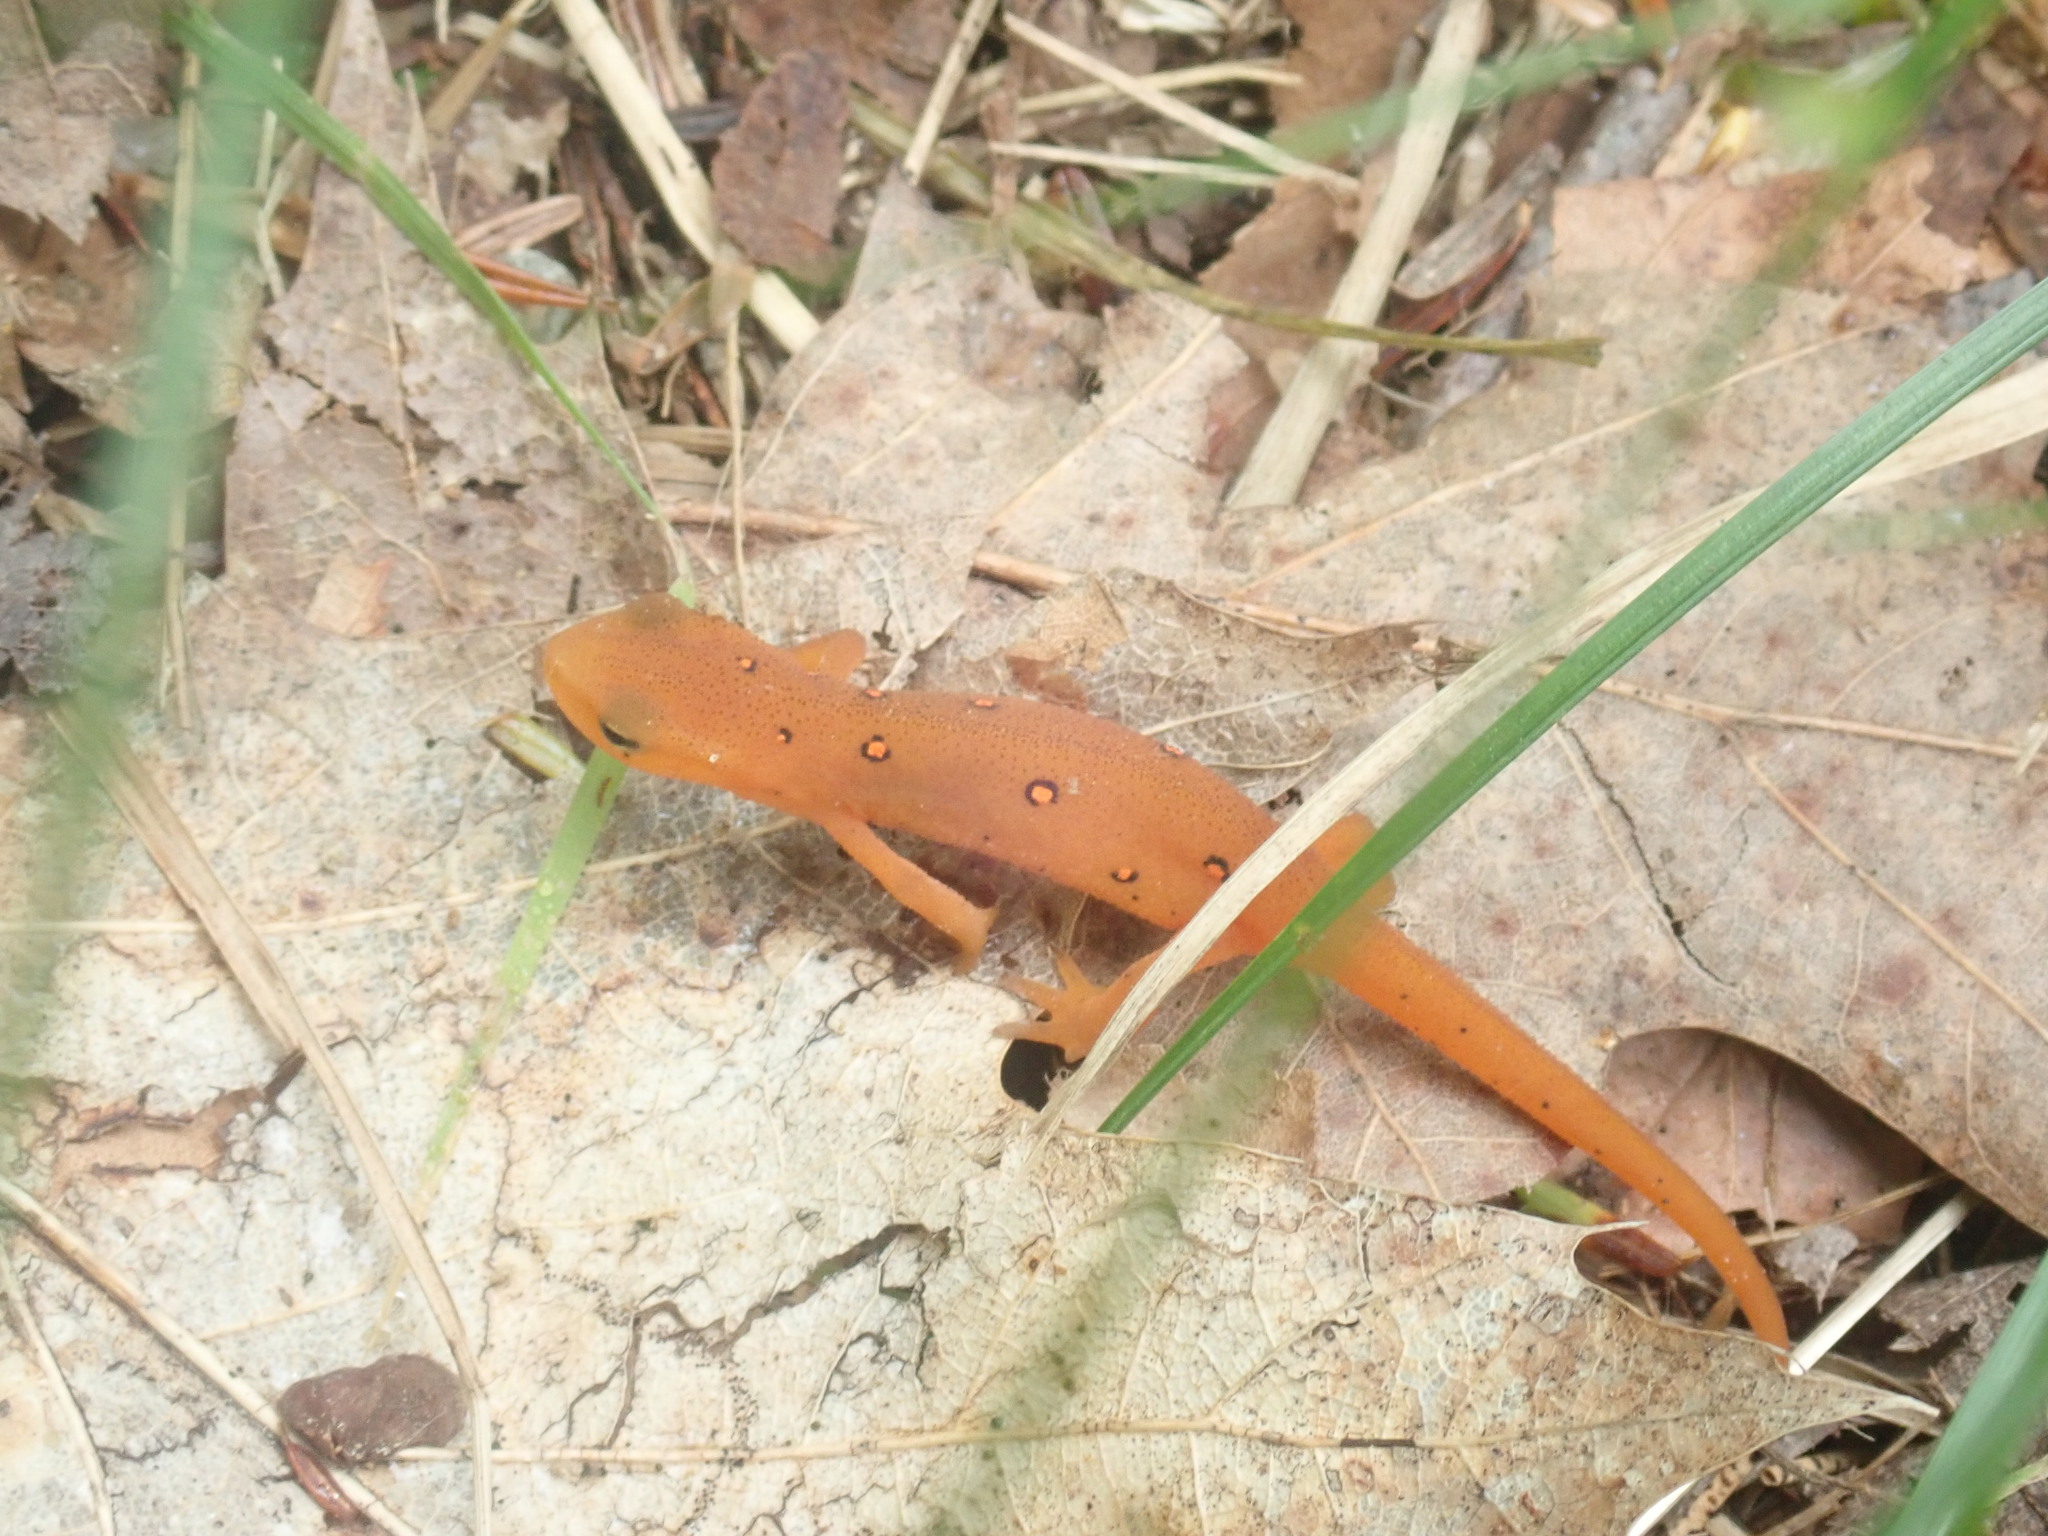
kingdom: Animalia
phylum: Chordata
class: Amphibia
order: Caudata
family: Salamandridae
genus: Notophthalmus
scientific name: Notophthalmus viridescens
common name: Eastern newt
